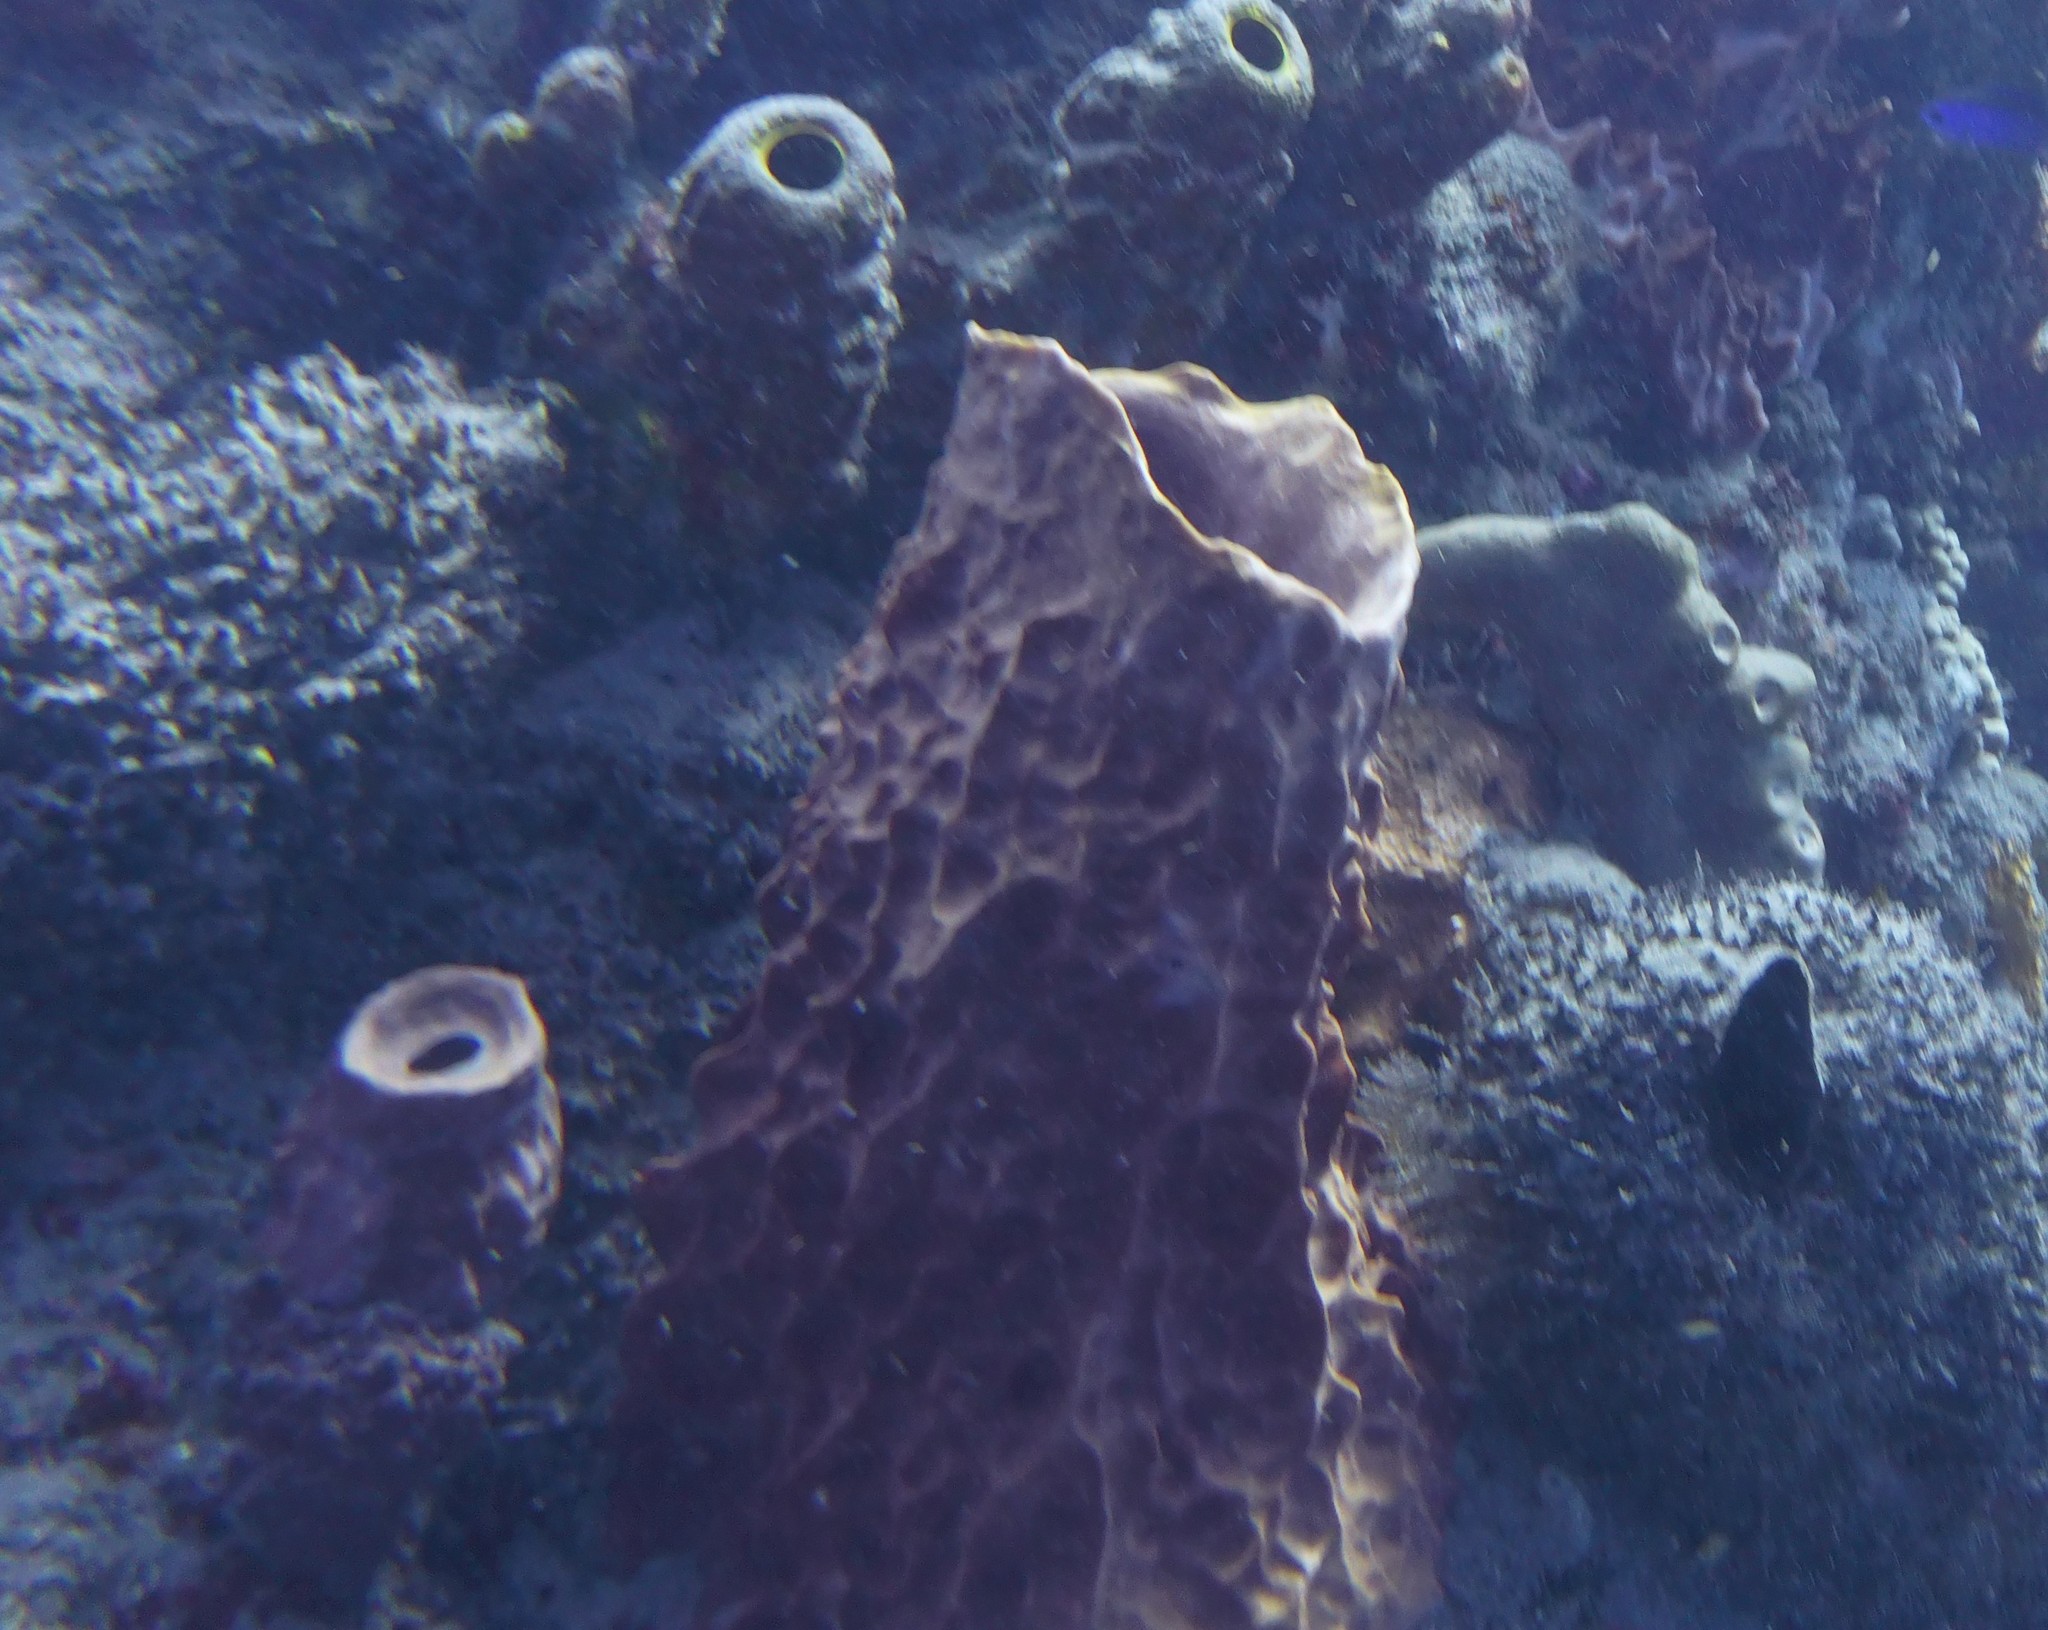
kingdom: Animalia
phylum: Porifera
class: Demospongiae
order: Haplosclerida
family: Petrosiidae
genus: Xestospongia
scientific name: Xestospongia muta
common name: Giant barrel sponge
